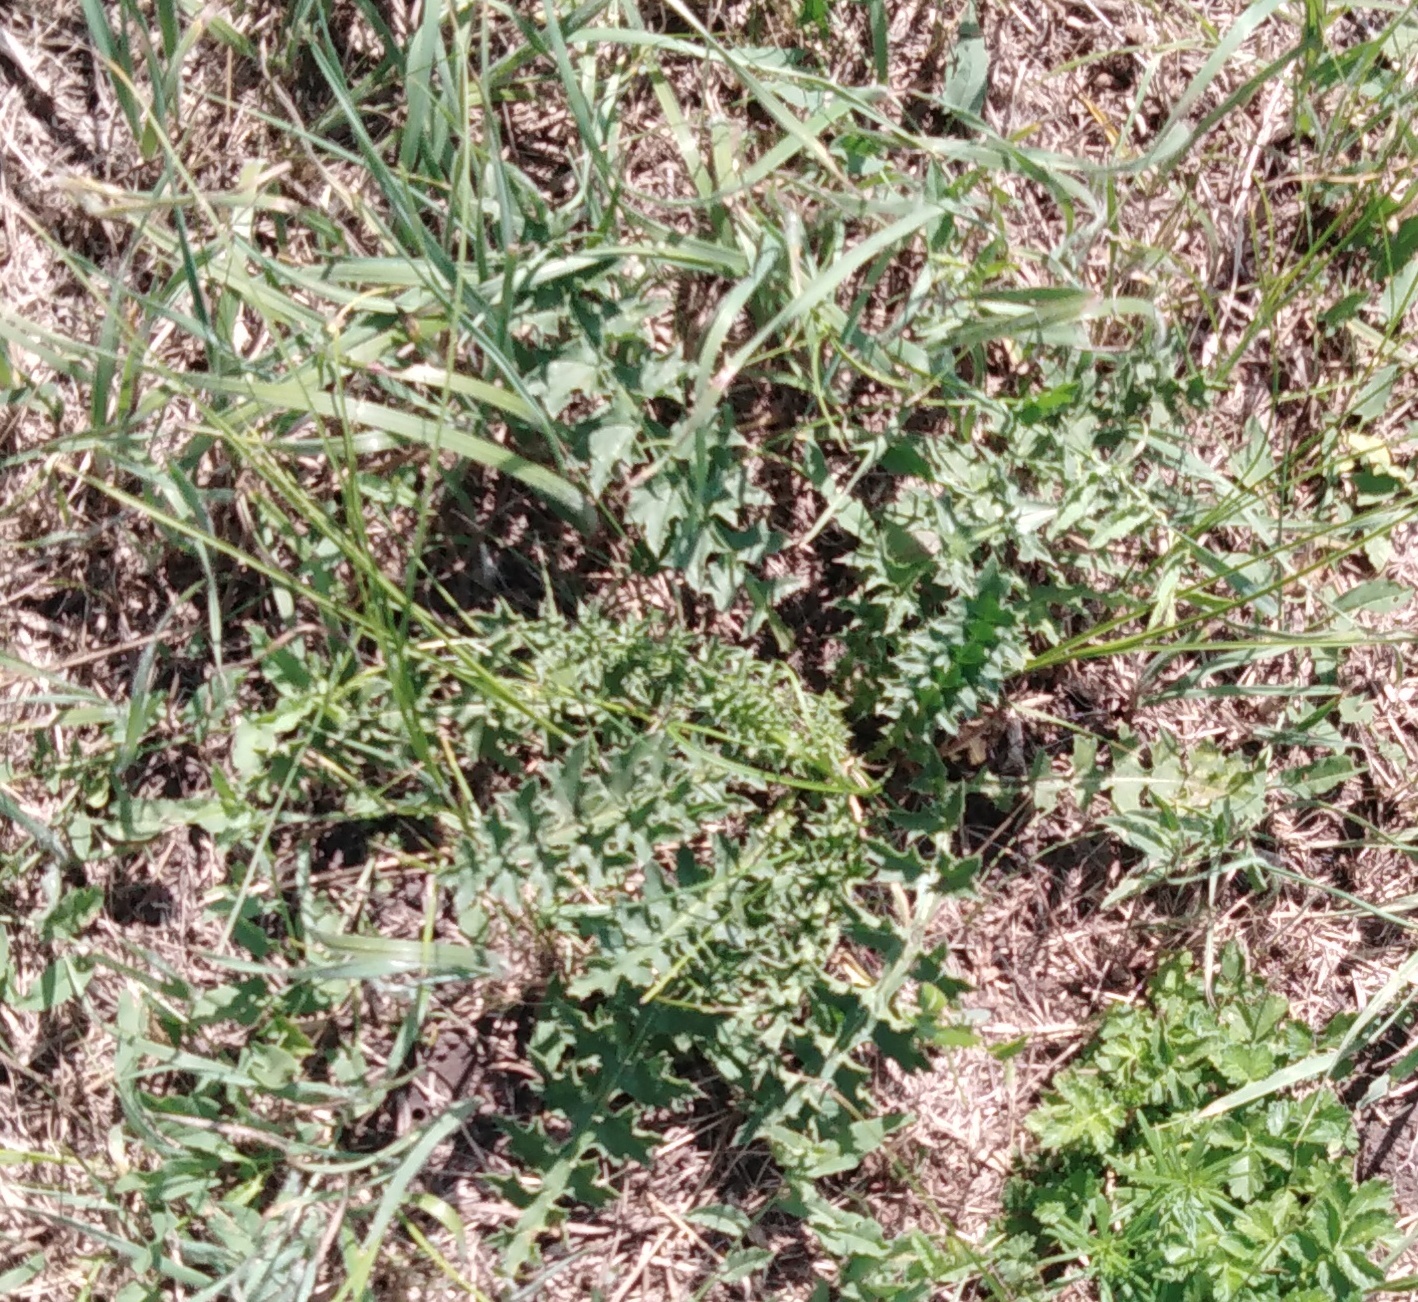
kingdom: Plantae
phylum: Tracheophyta
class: Magnoliopsida
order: Asterales
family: Asteraceae
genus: Carduus
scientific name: Carduus acanthoides
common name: Plumeless thistle
